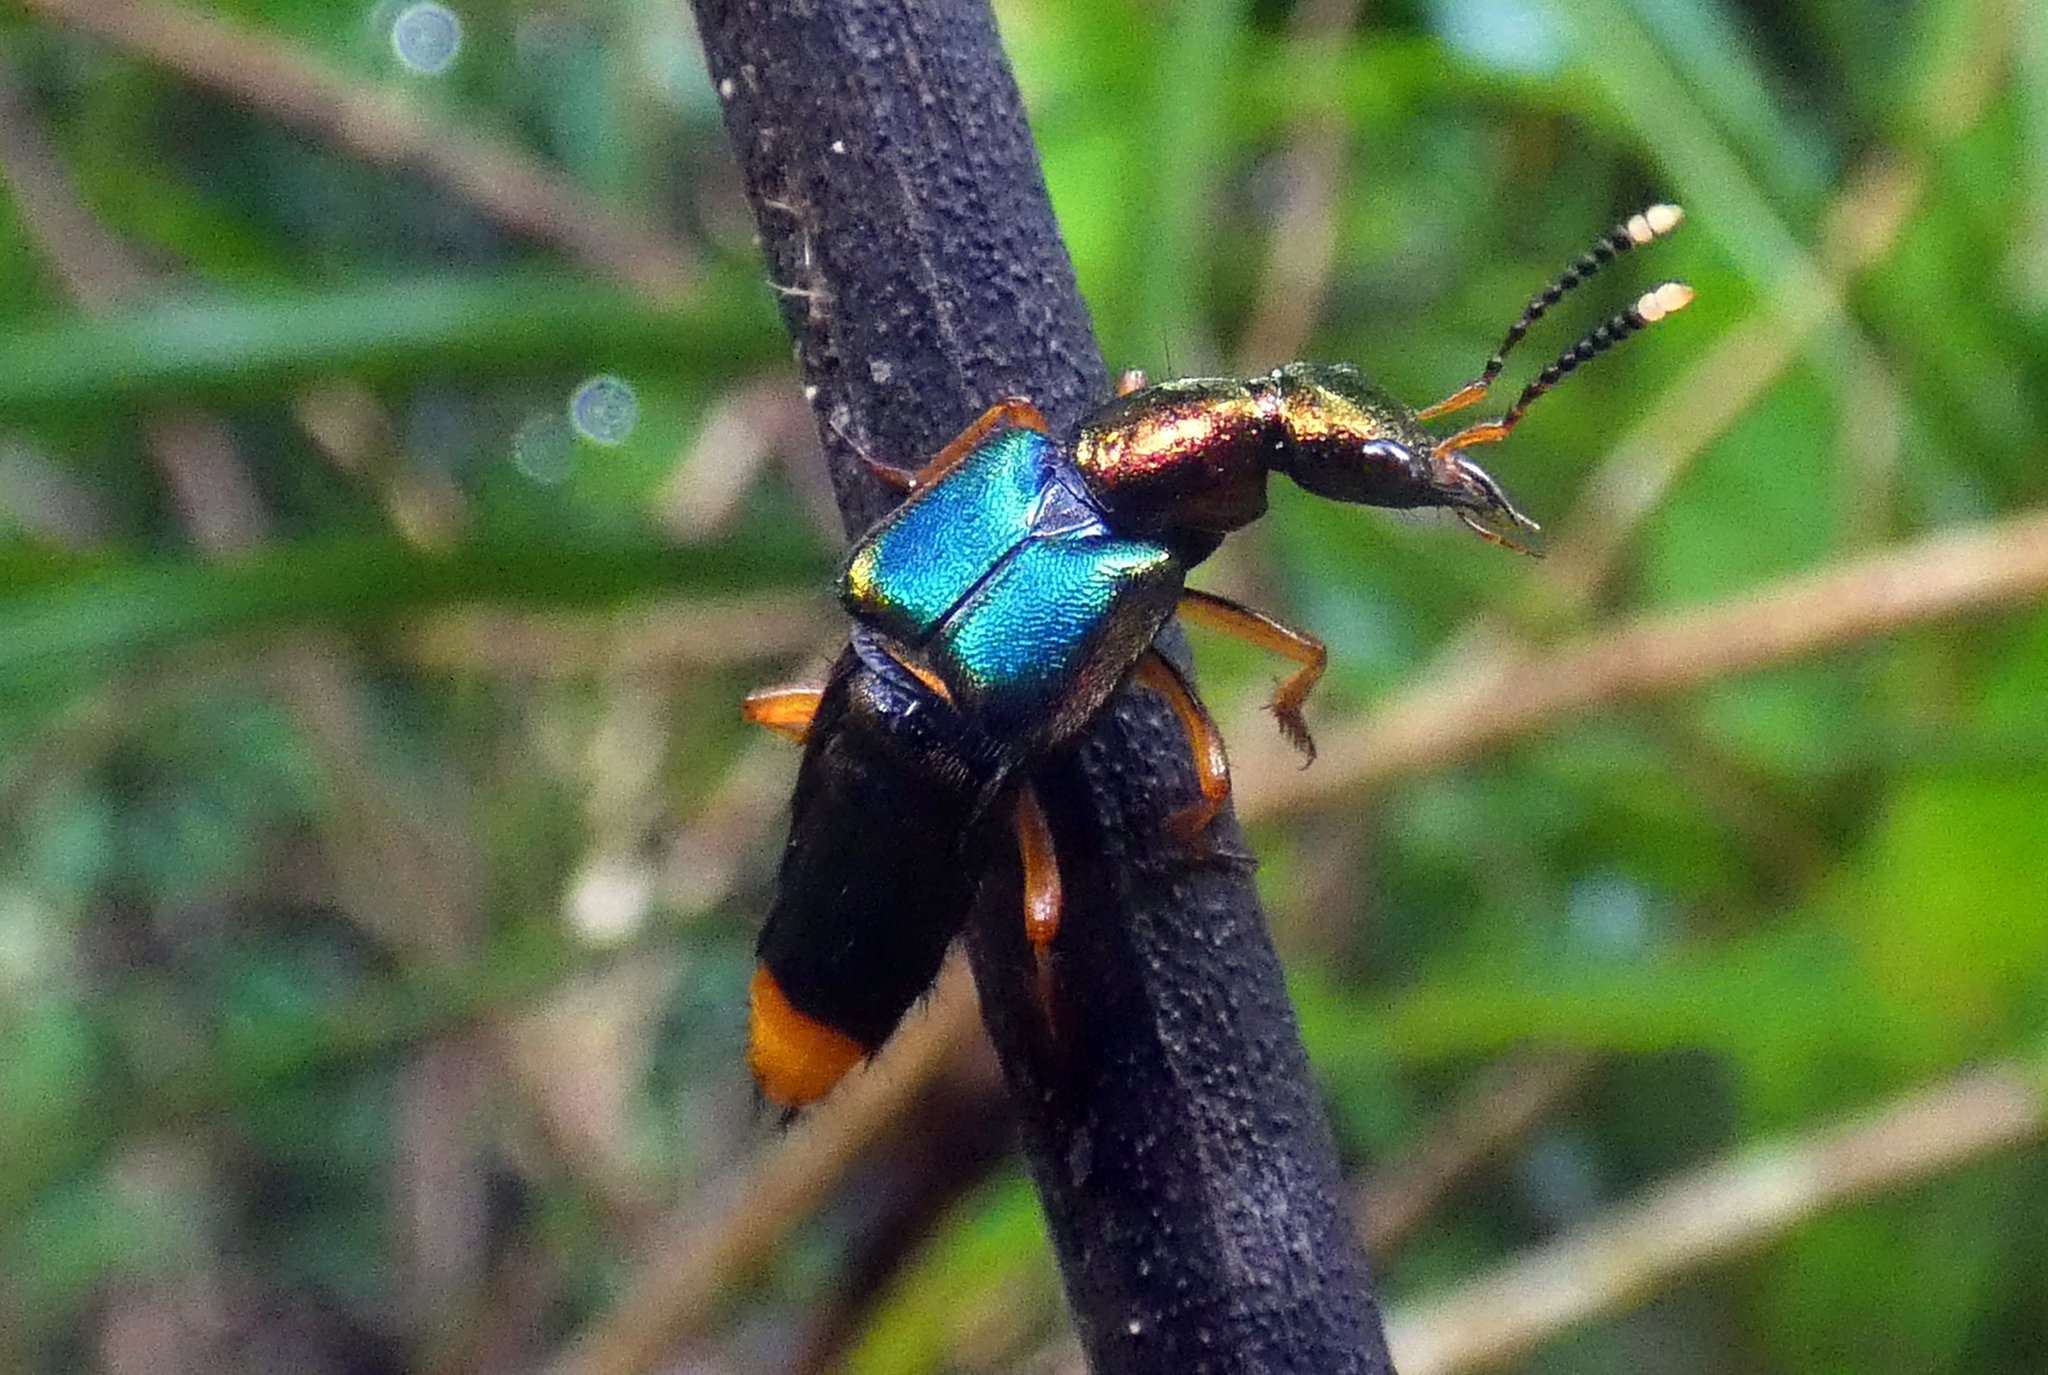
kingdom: Animalia
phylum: Arthropoda
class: Insecta
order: Coleoptera
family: Staphylinidae
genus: Actinus
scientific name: Actinus macleayi
